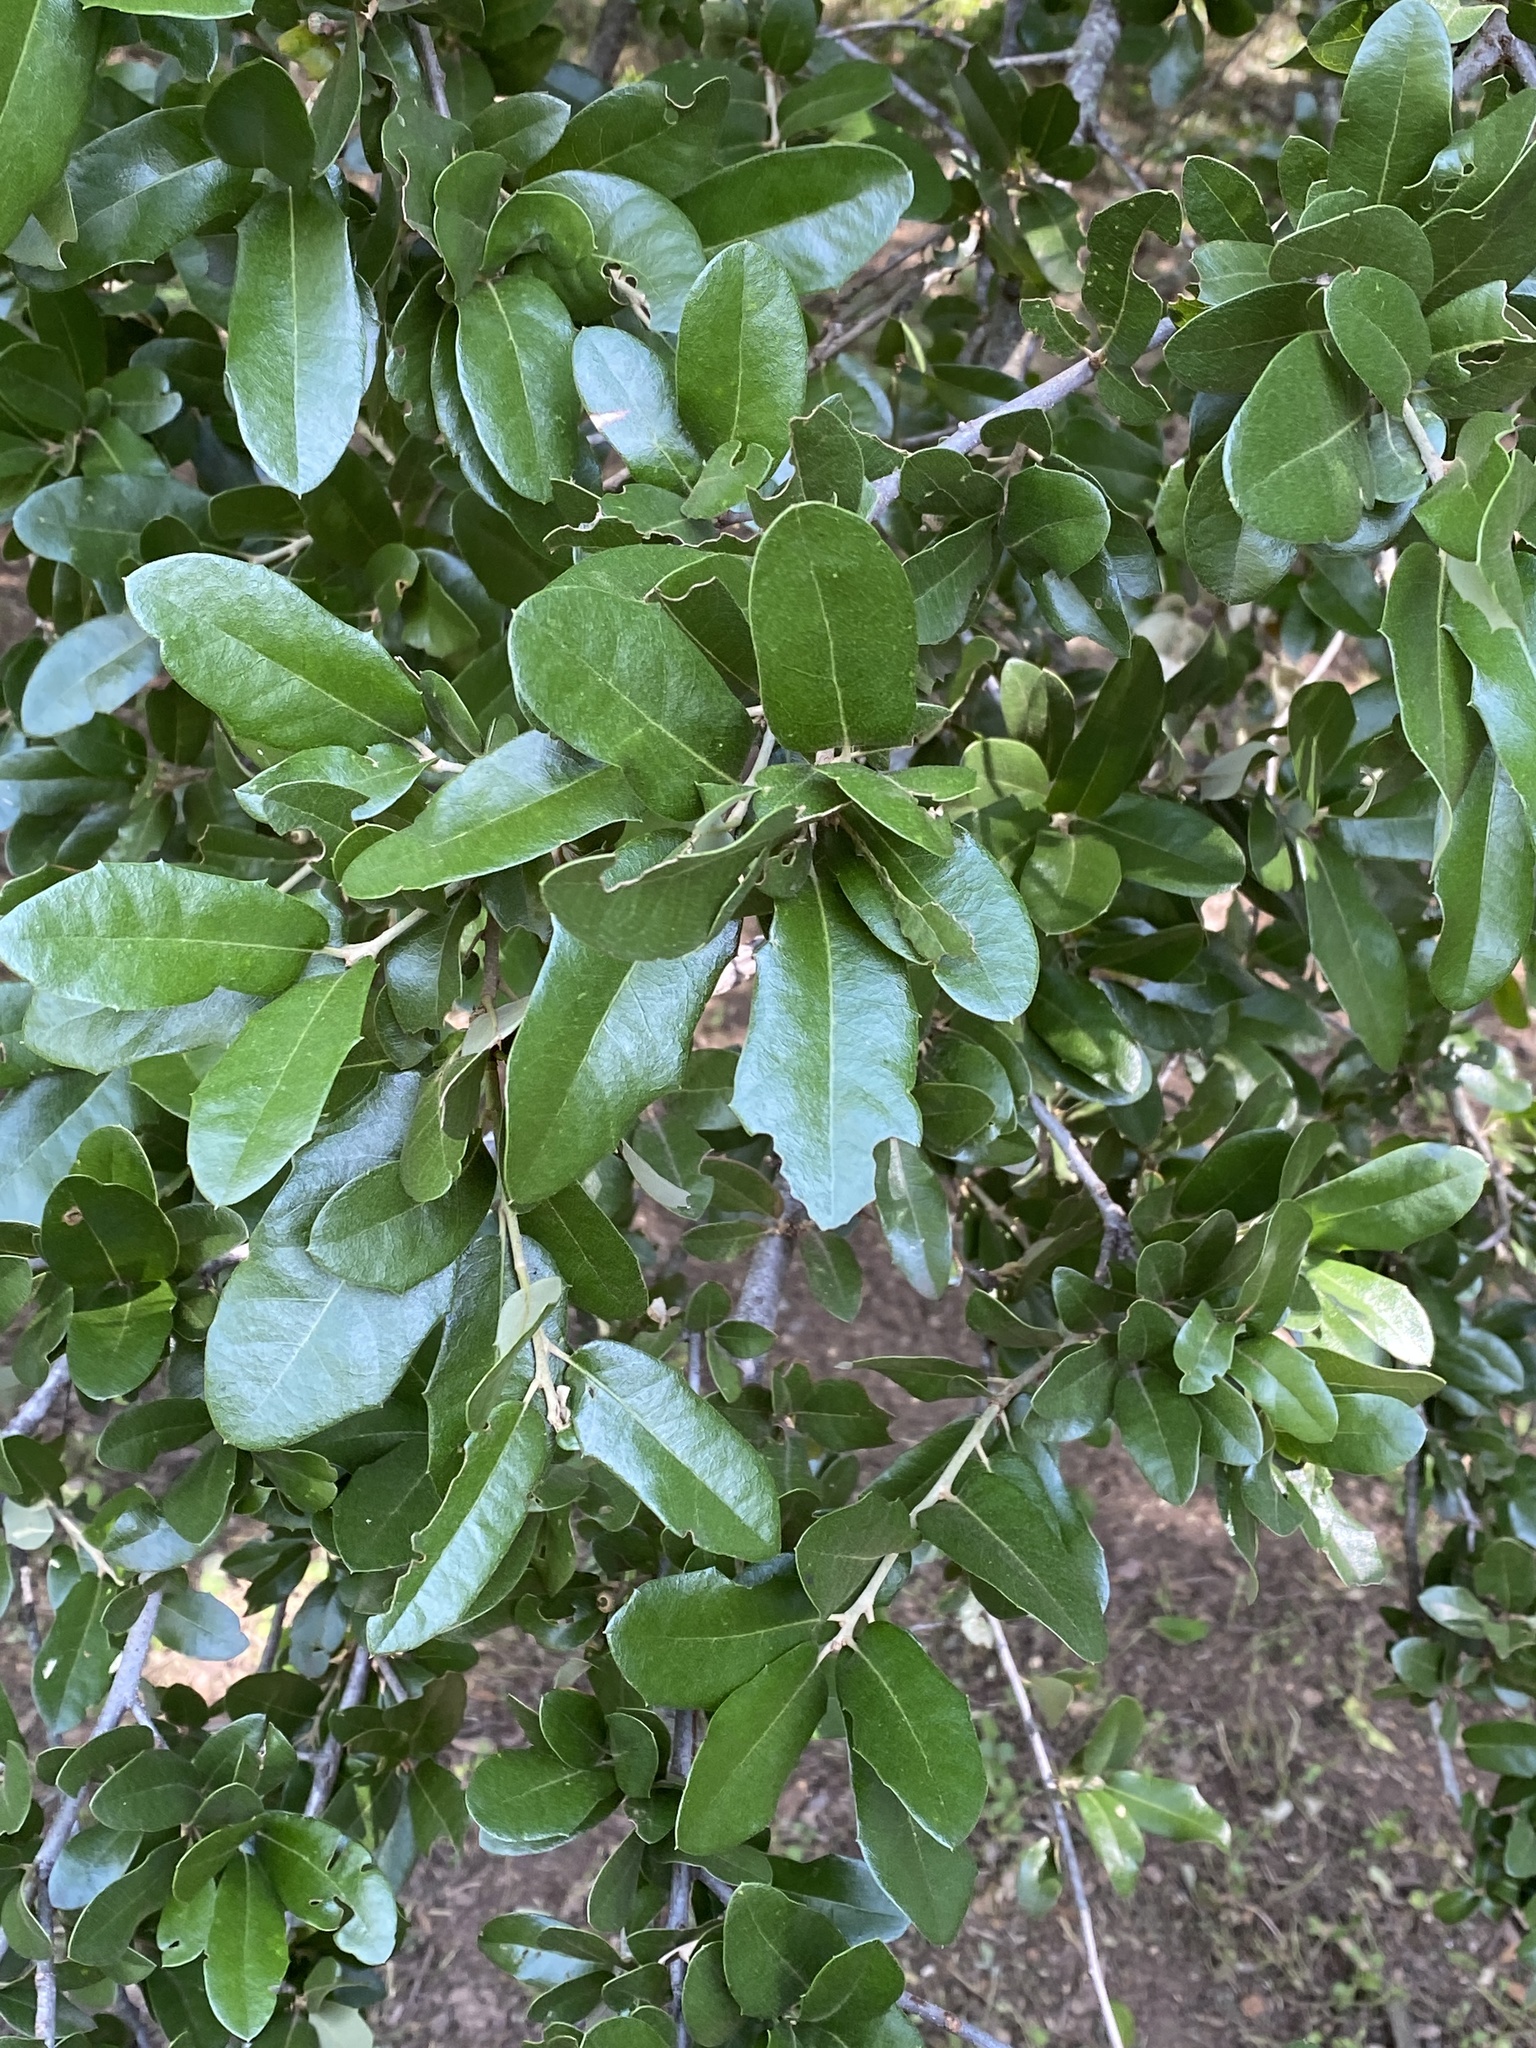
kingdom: Plantae
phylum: Tracheophyta
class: Magnoliopsida
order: Fagales
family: Fagaceae
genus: Quercus
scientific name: Quercus fusiformis
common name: Texas live oak
